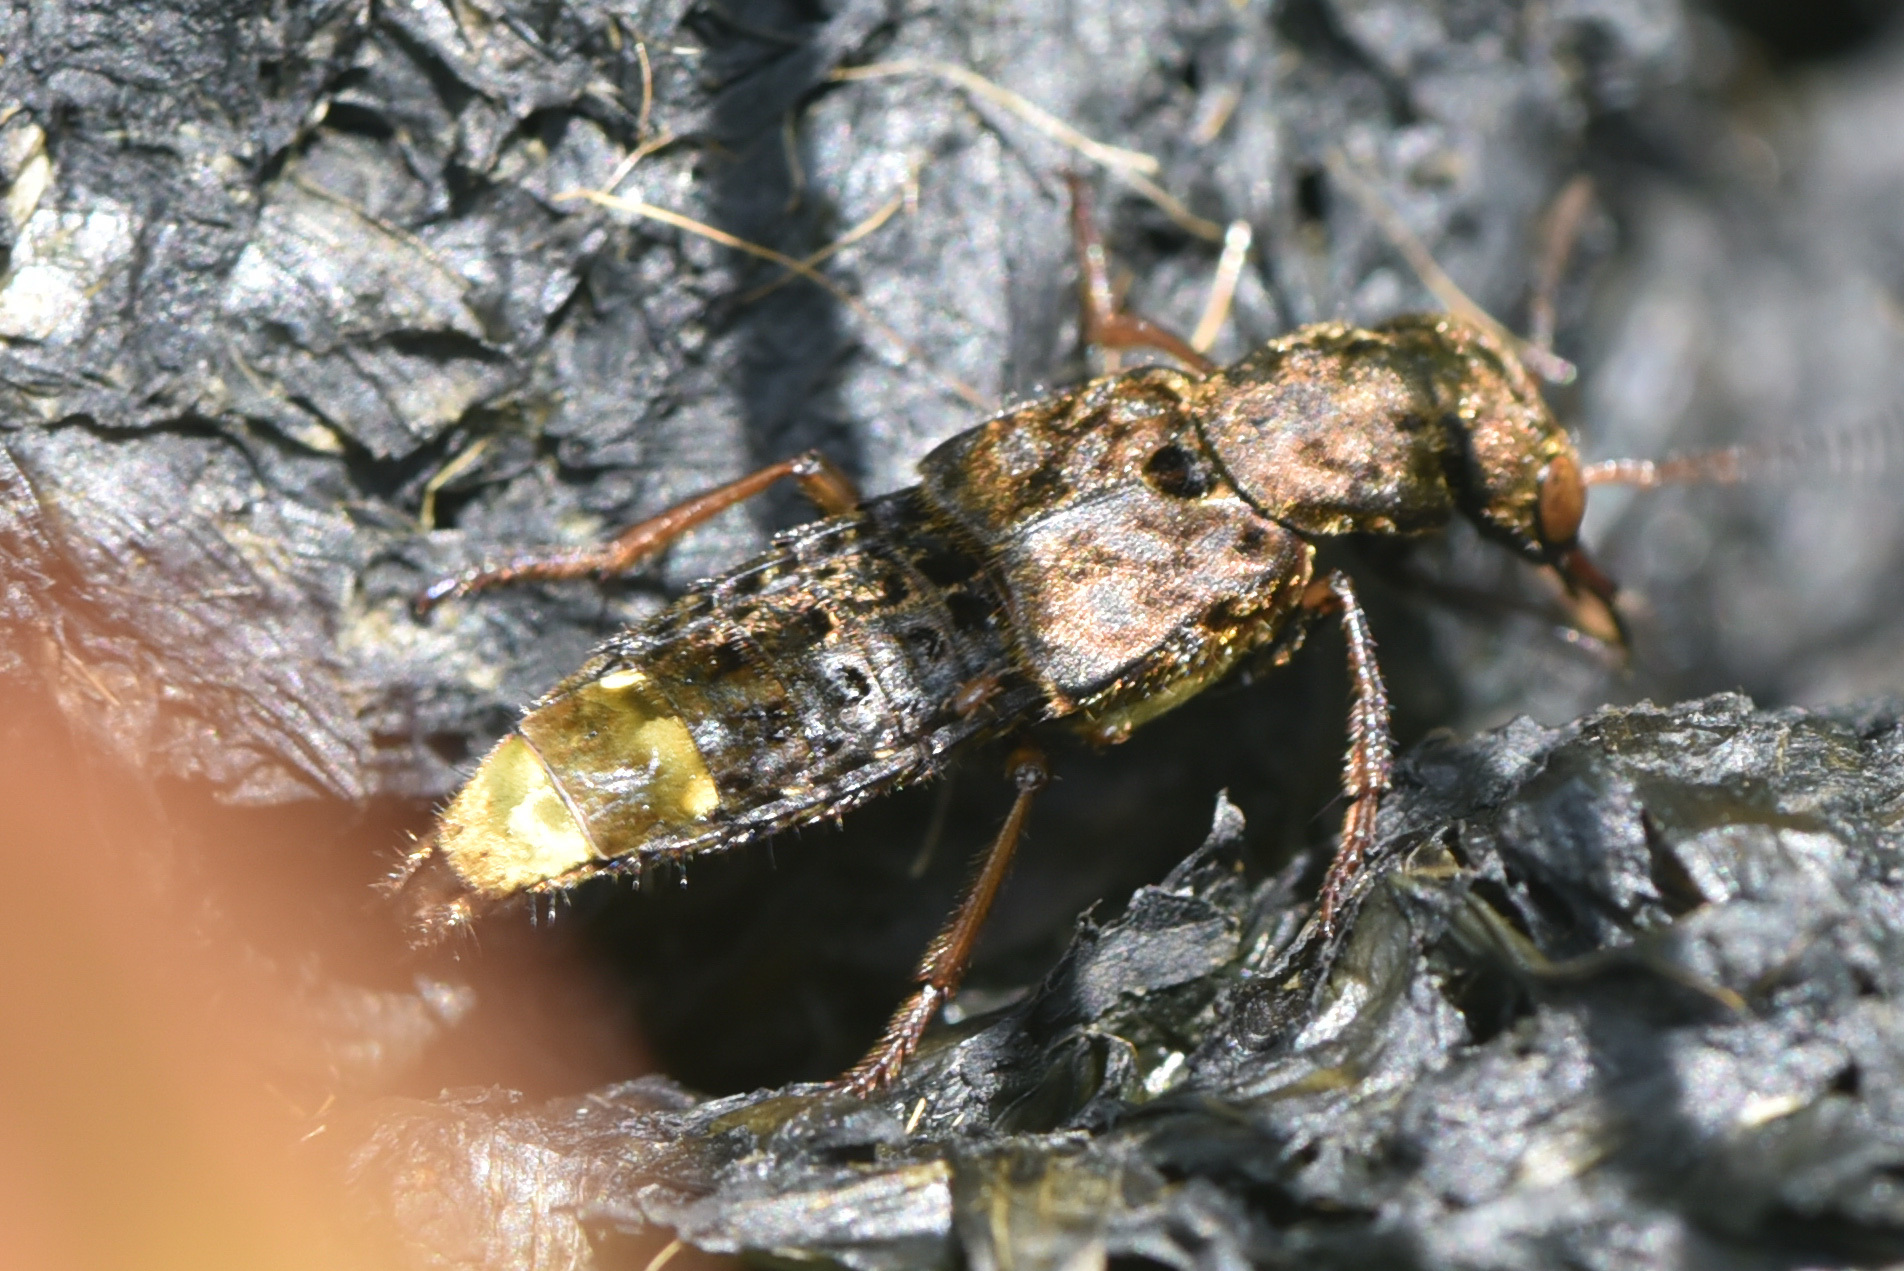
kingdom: Animalia
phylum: Arthropoda
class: Insecta
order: Coleoptera
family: Staphylinidae
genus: Ontholestes
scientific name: Ontholestes cingulatus
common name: Gold-and-brown rove beetle
